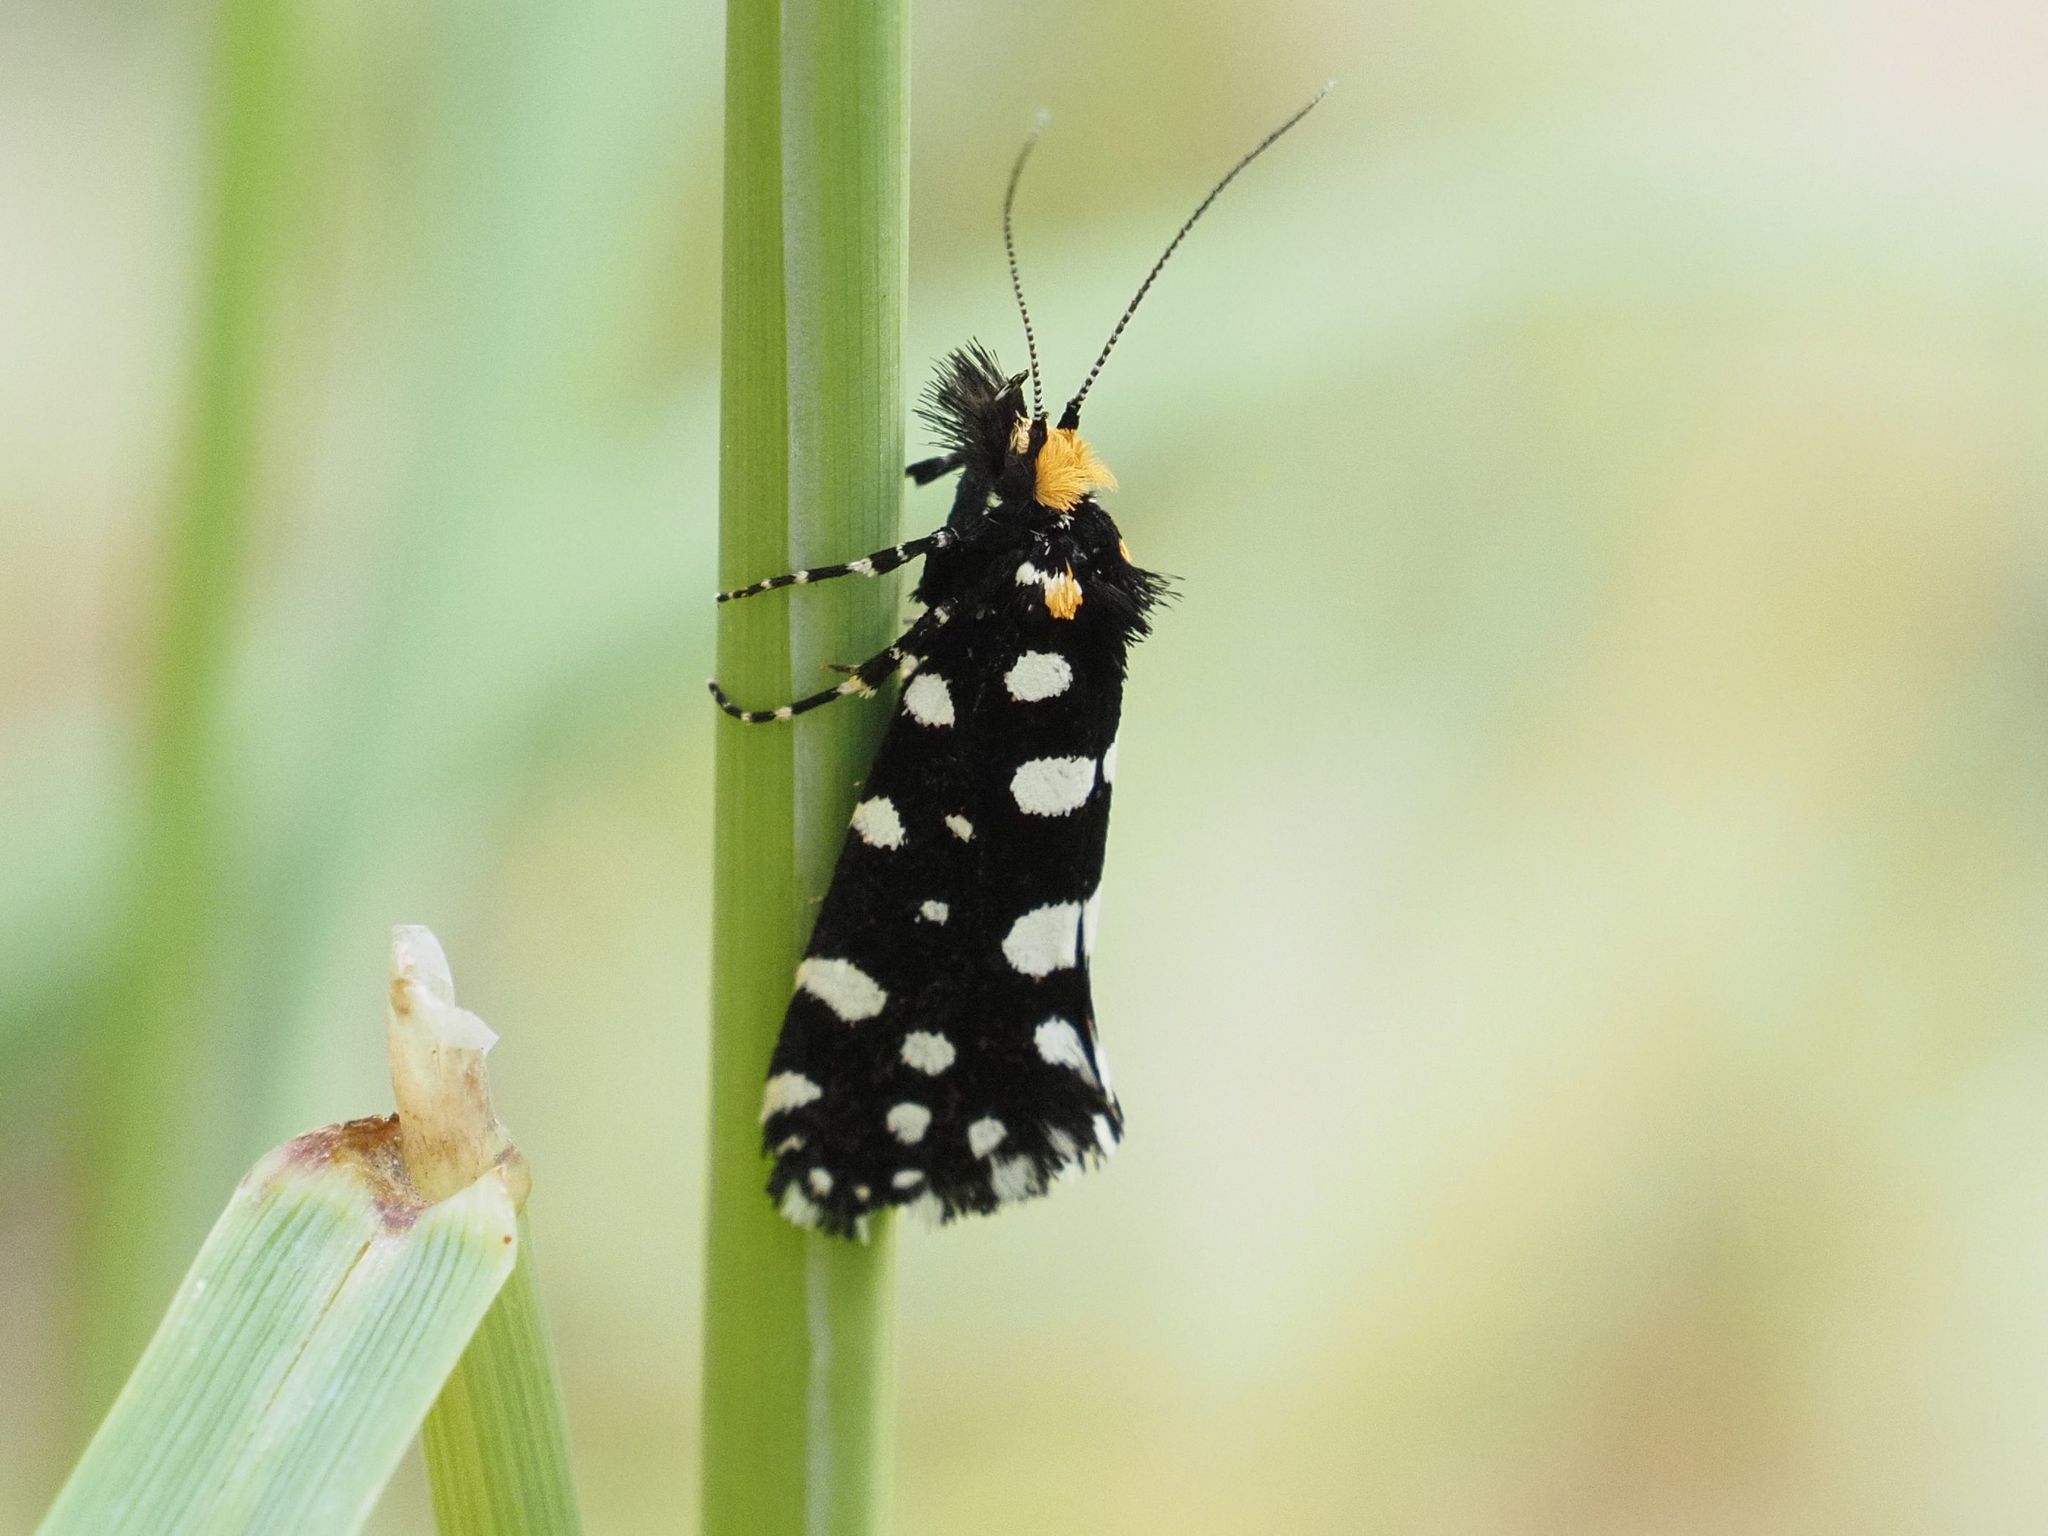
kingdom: Animalia
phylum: Arthropoda
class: Insecta
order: Lepidoptera
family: Tineidae
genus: Euplocamus
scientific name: Euplocamus anthracinalis
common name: Black clothes
